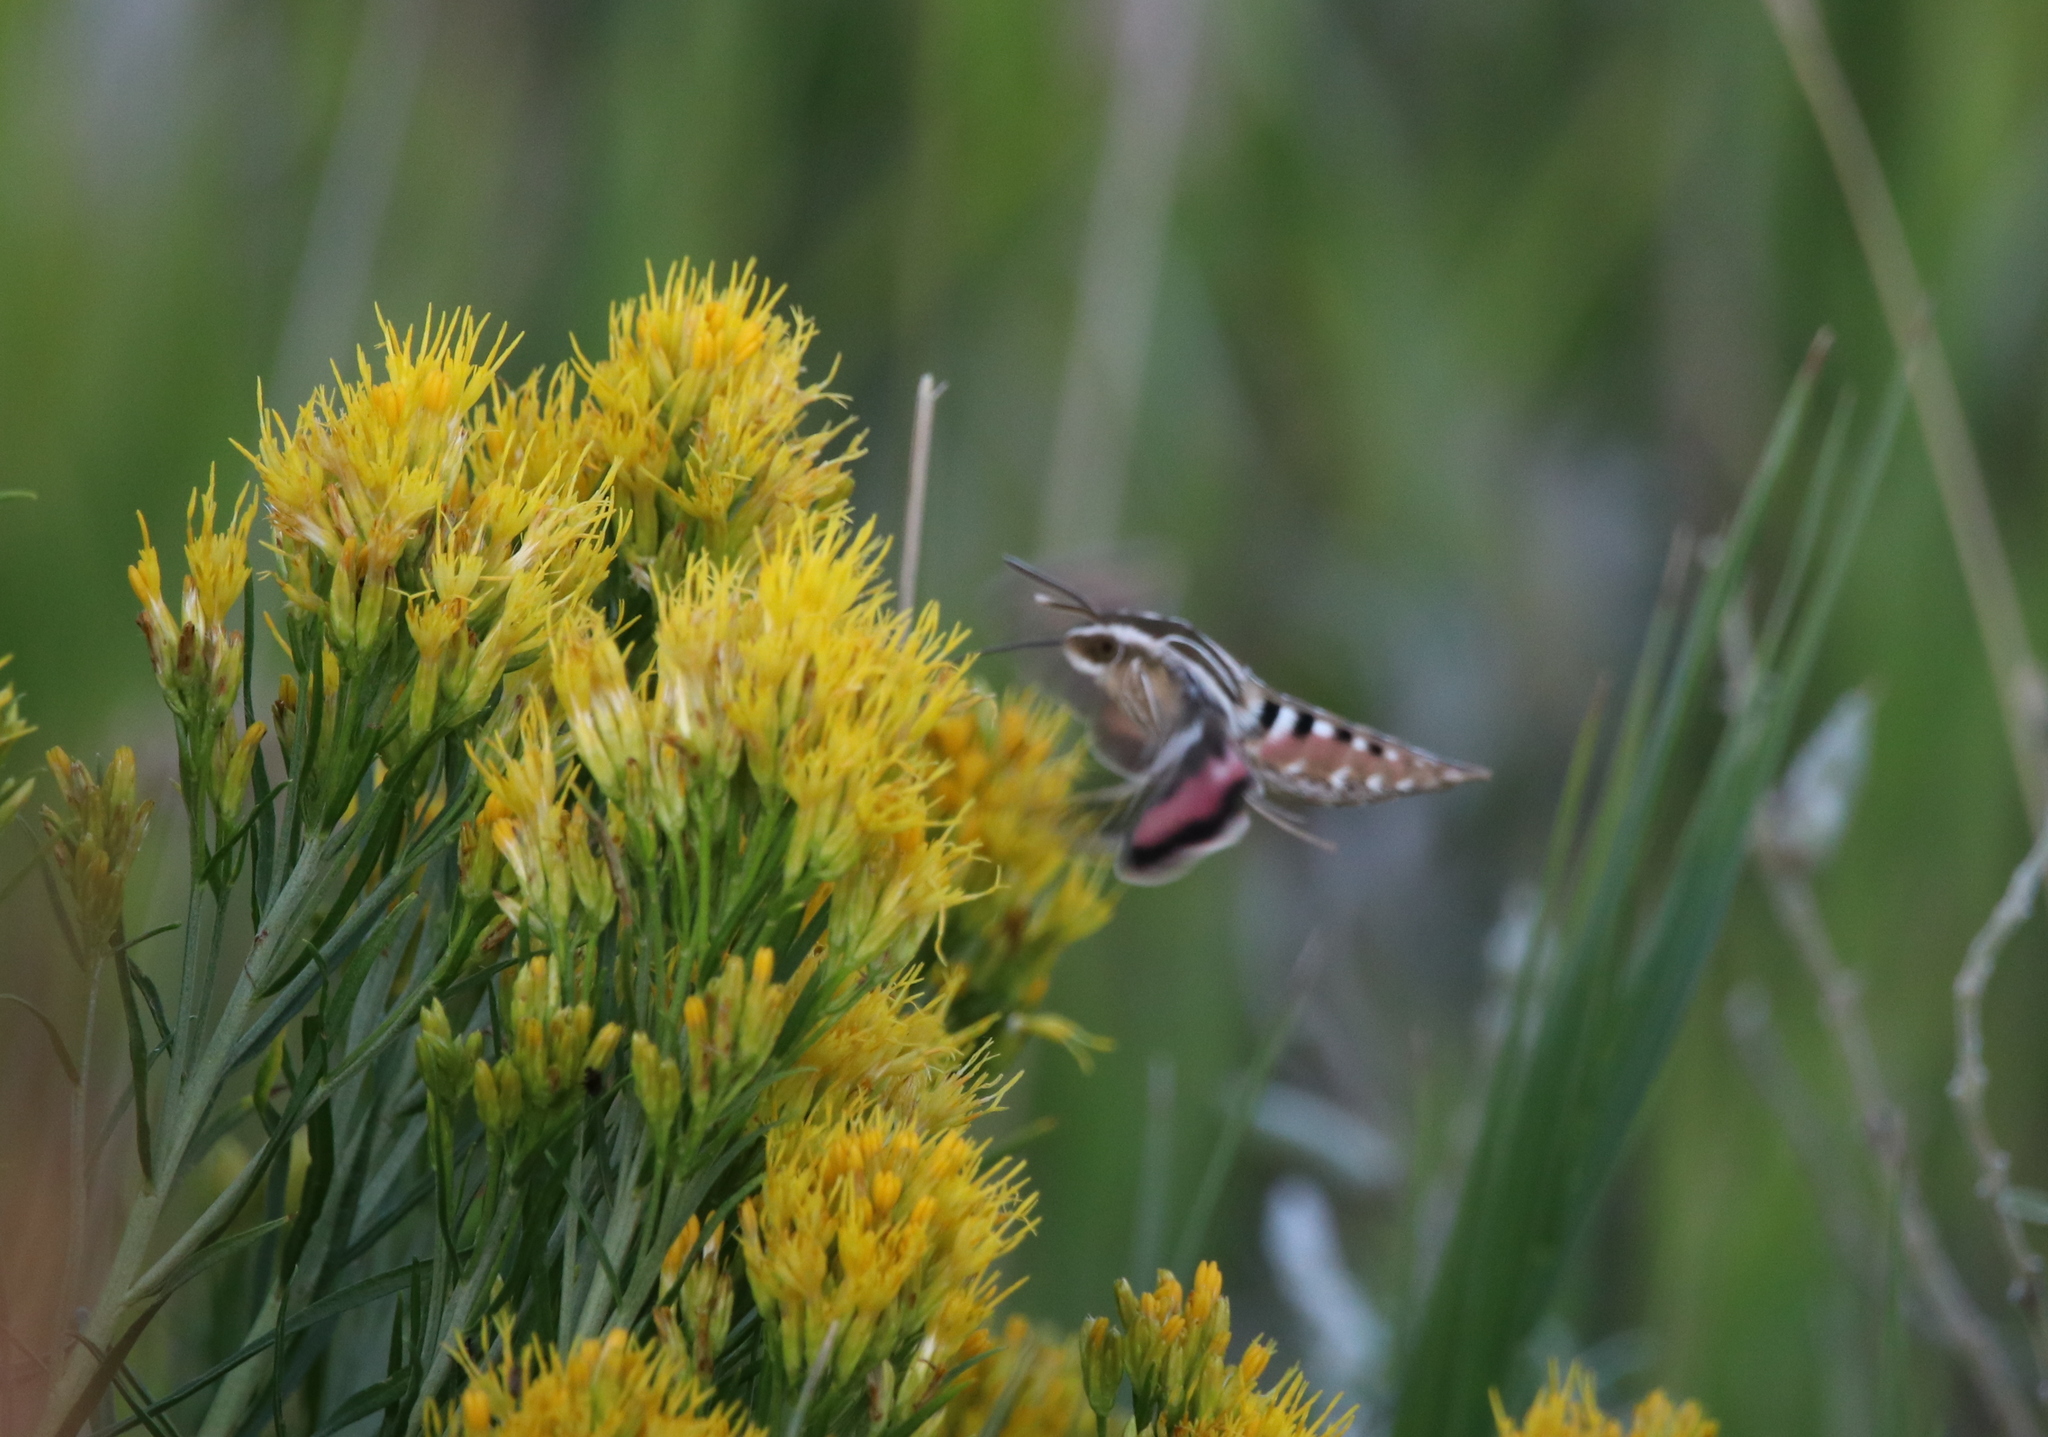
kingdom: Animalia
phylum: Arthropoda
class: Insecta
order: Lepidoptera
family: Sphingidae
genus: Hyles
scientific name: Hyles lineata
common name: White-lined sphinx
